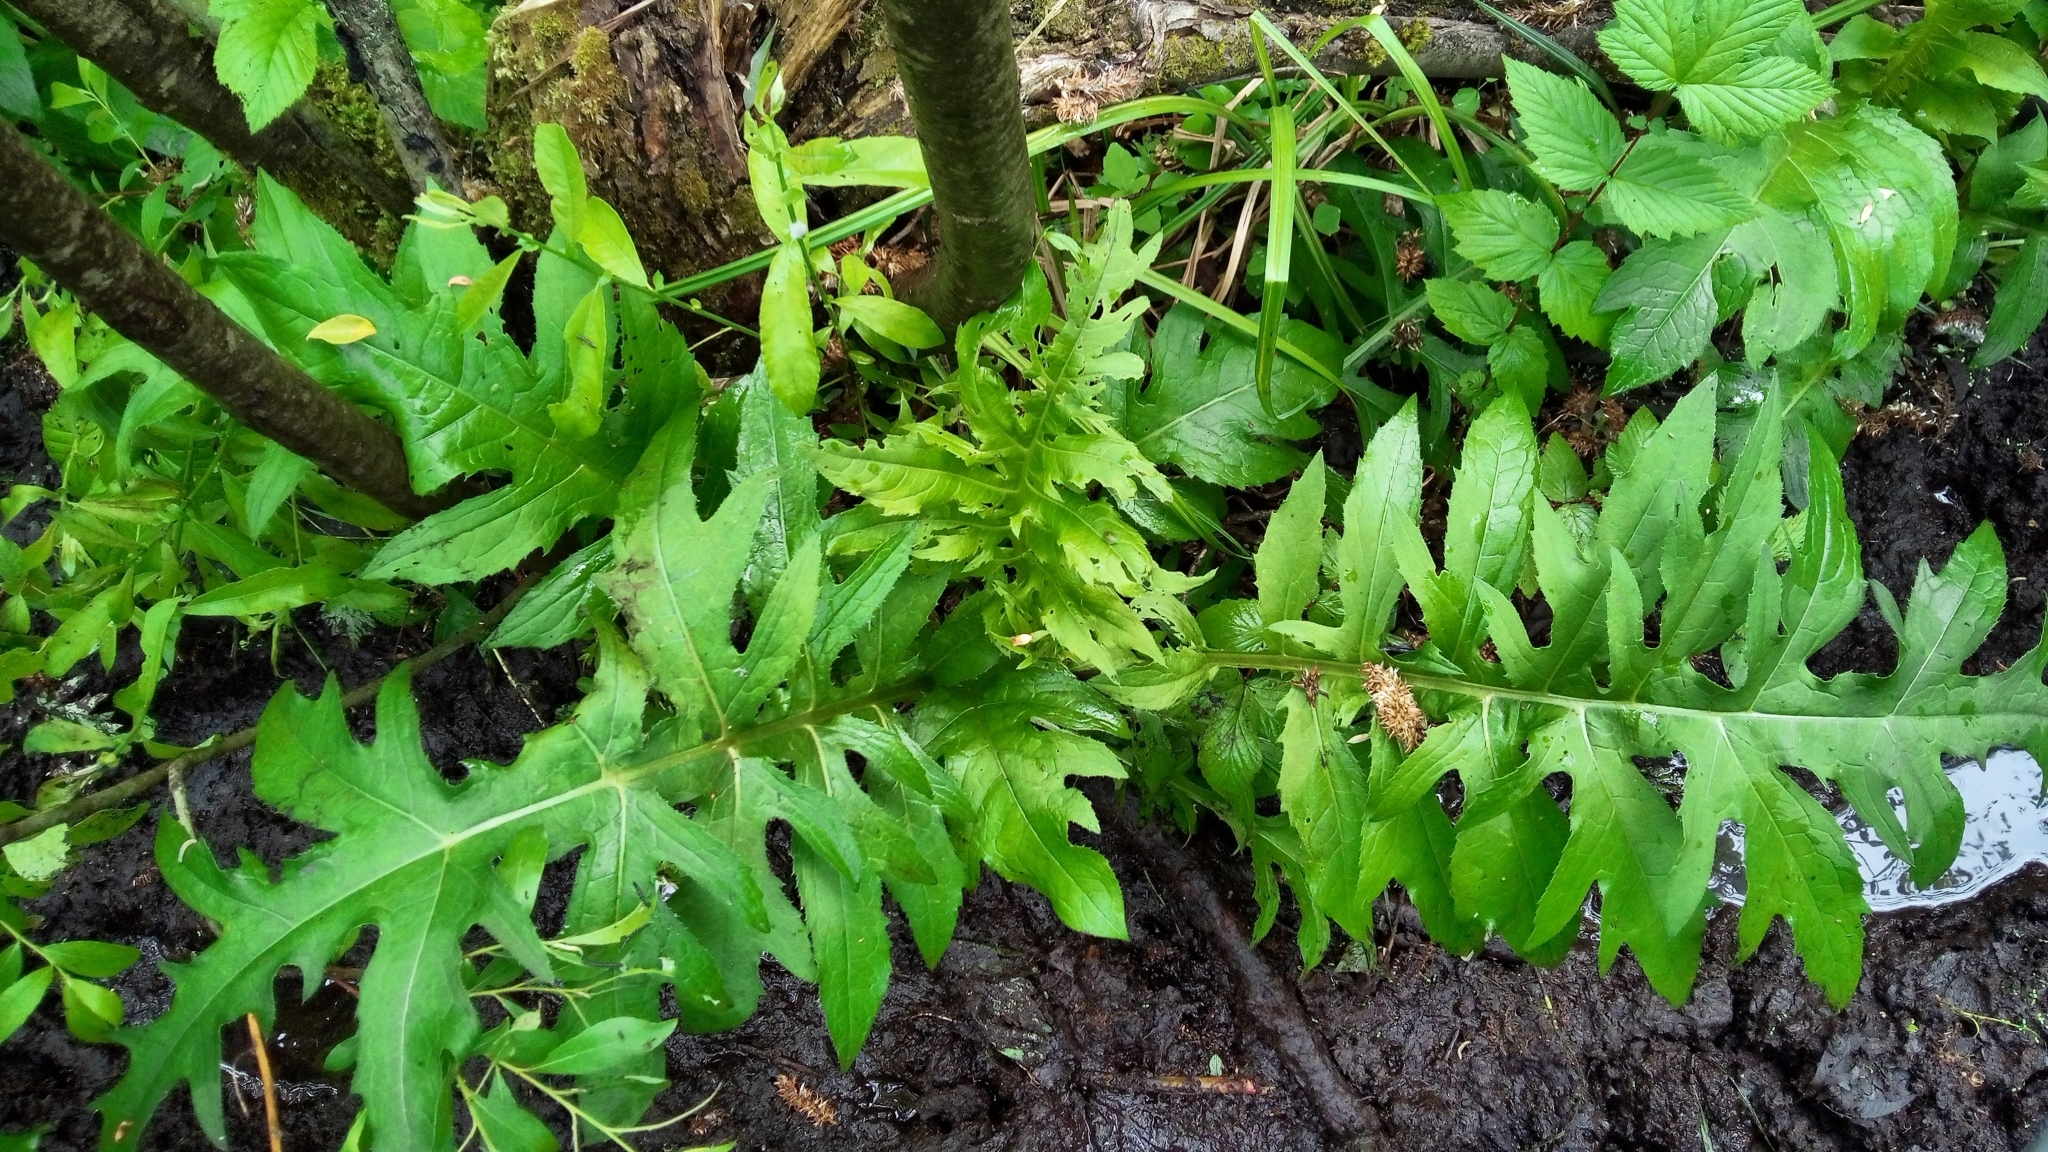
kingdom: Plantae
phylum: Tracheophyta
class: Magnoliopsida
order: Asterales
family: Asteraceae
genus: Cirsium
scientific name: Cirsium oleraceum
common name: Cabbage thistle
